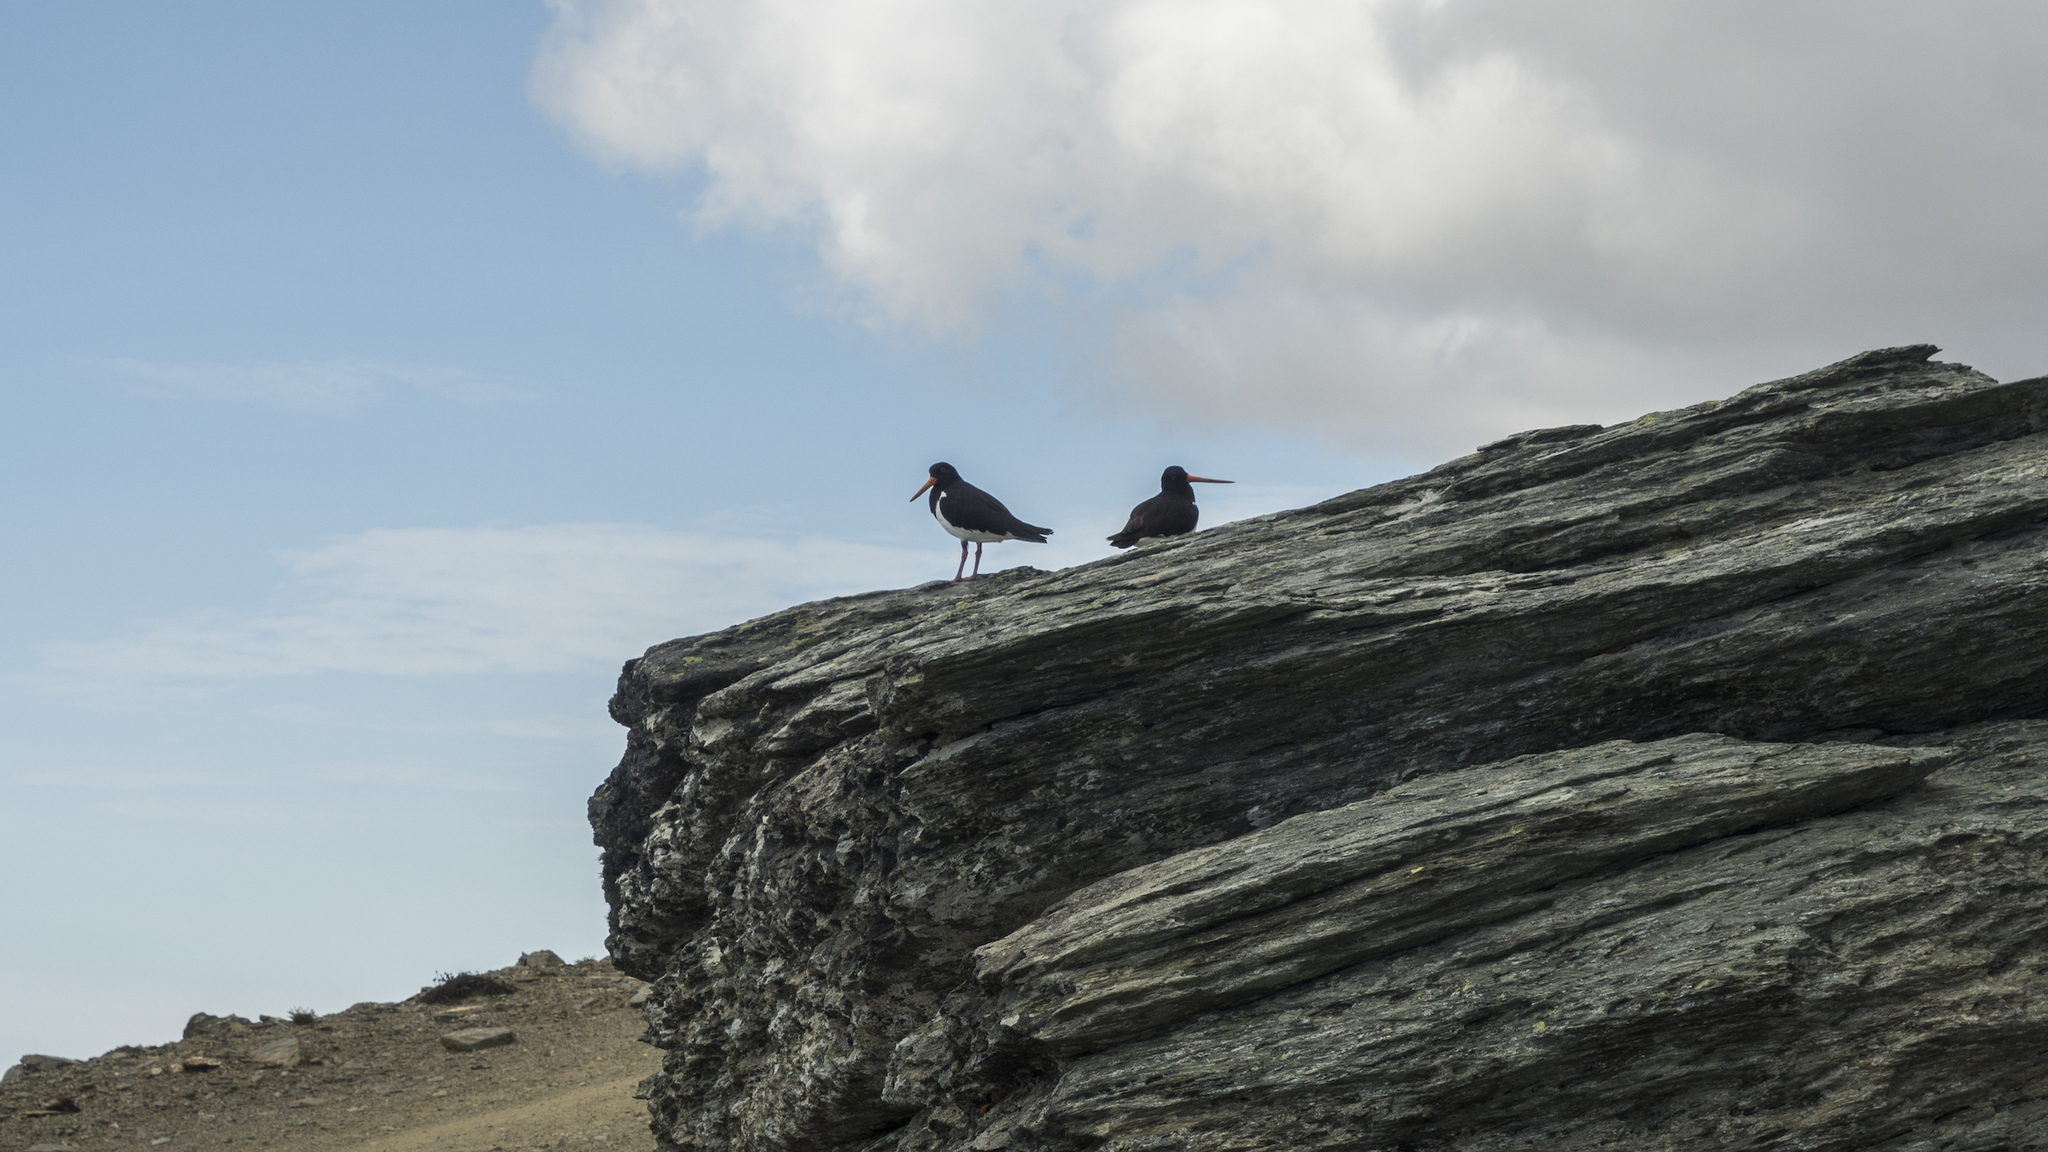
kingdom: Animalia
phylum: Chordata
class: Aves
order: Charadriiformes
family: Haematopodidae
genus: Haematopus
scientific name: Haematopus finschi
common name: South island oystercatcher
